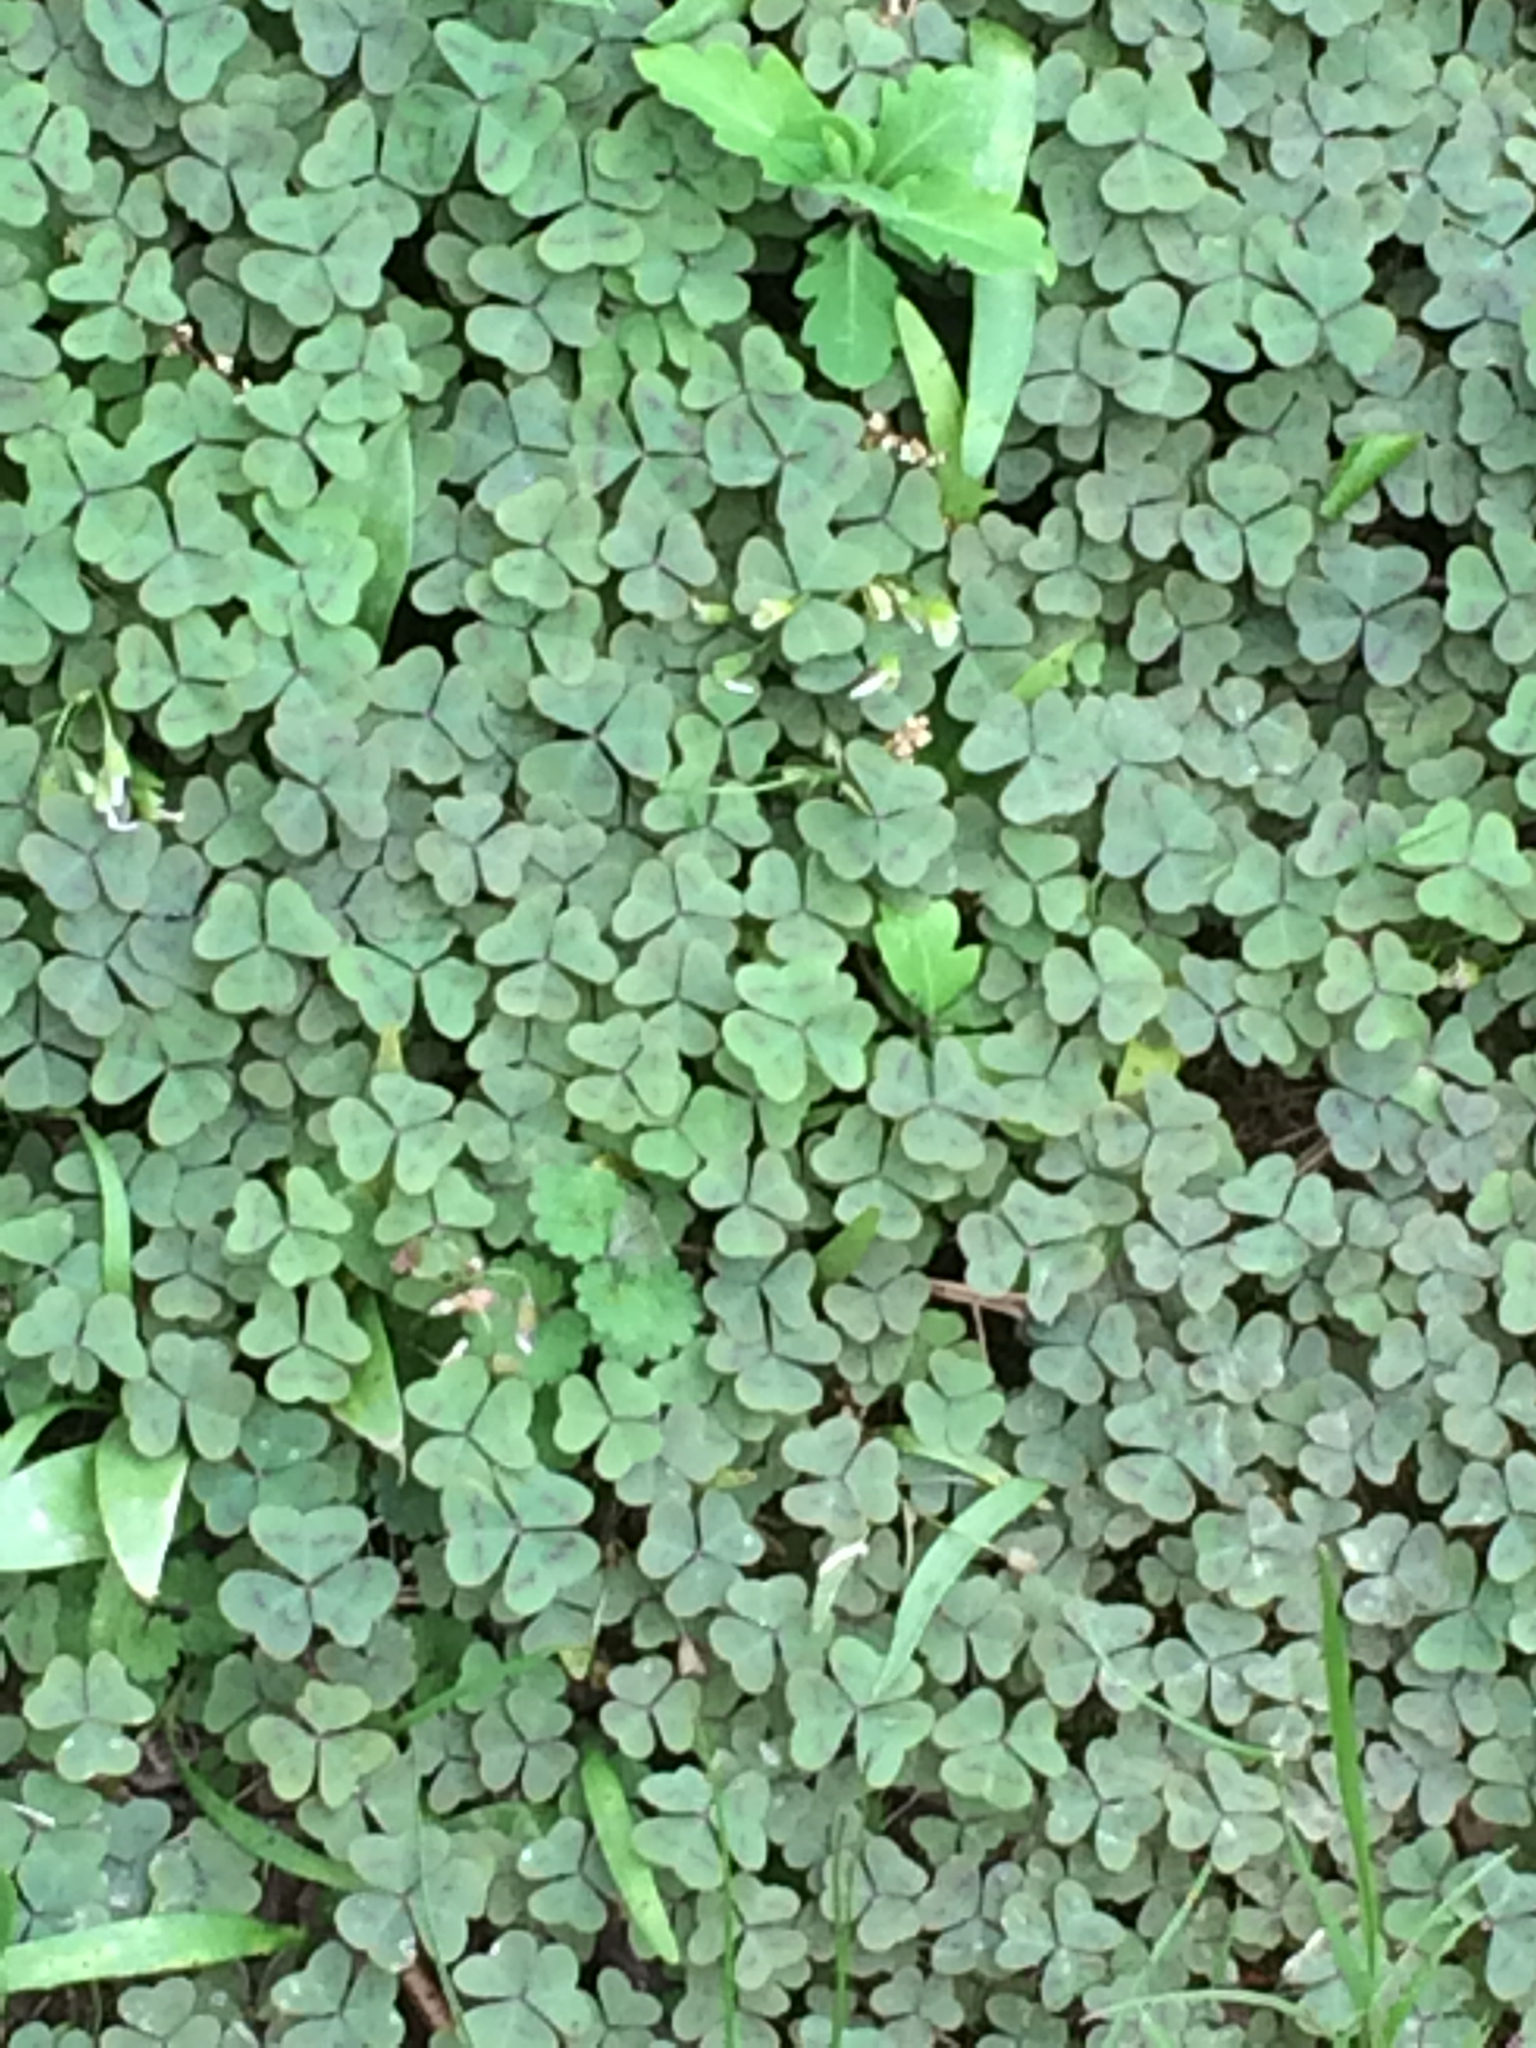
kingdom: Plantae
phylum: Tracheophyta
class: Magnoliopsida
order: Oxalidales
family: Oxalidaceae
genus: Oxalis
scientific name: Oxalis violacea
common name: Violet wood-sorrel
